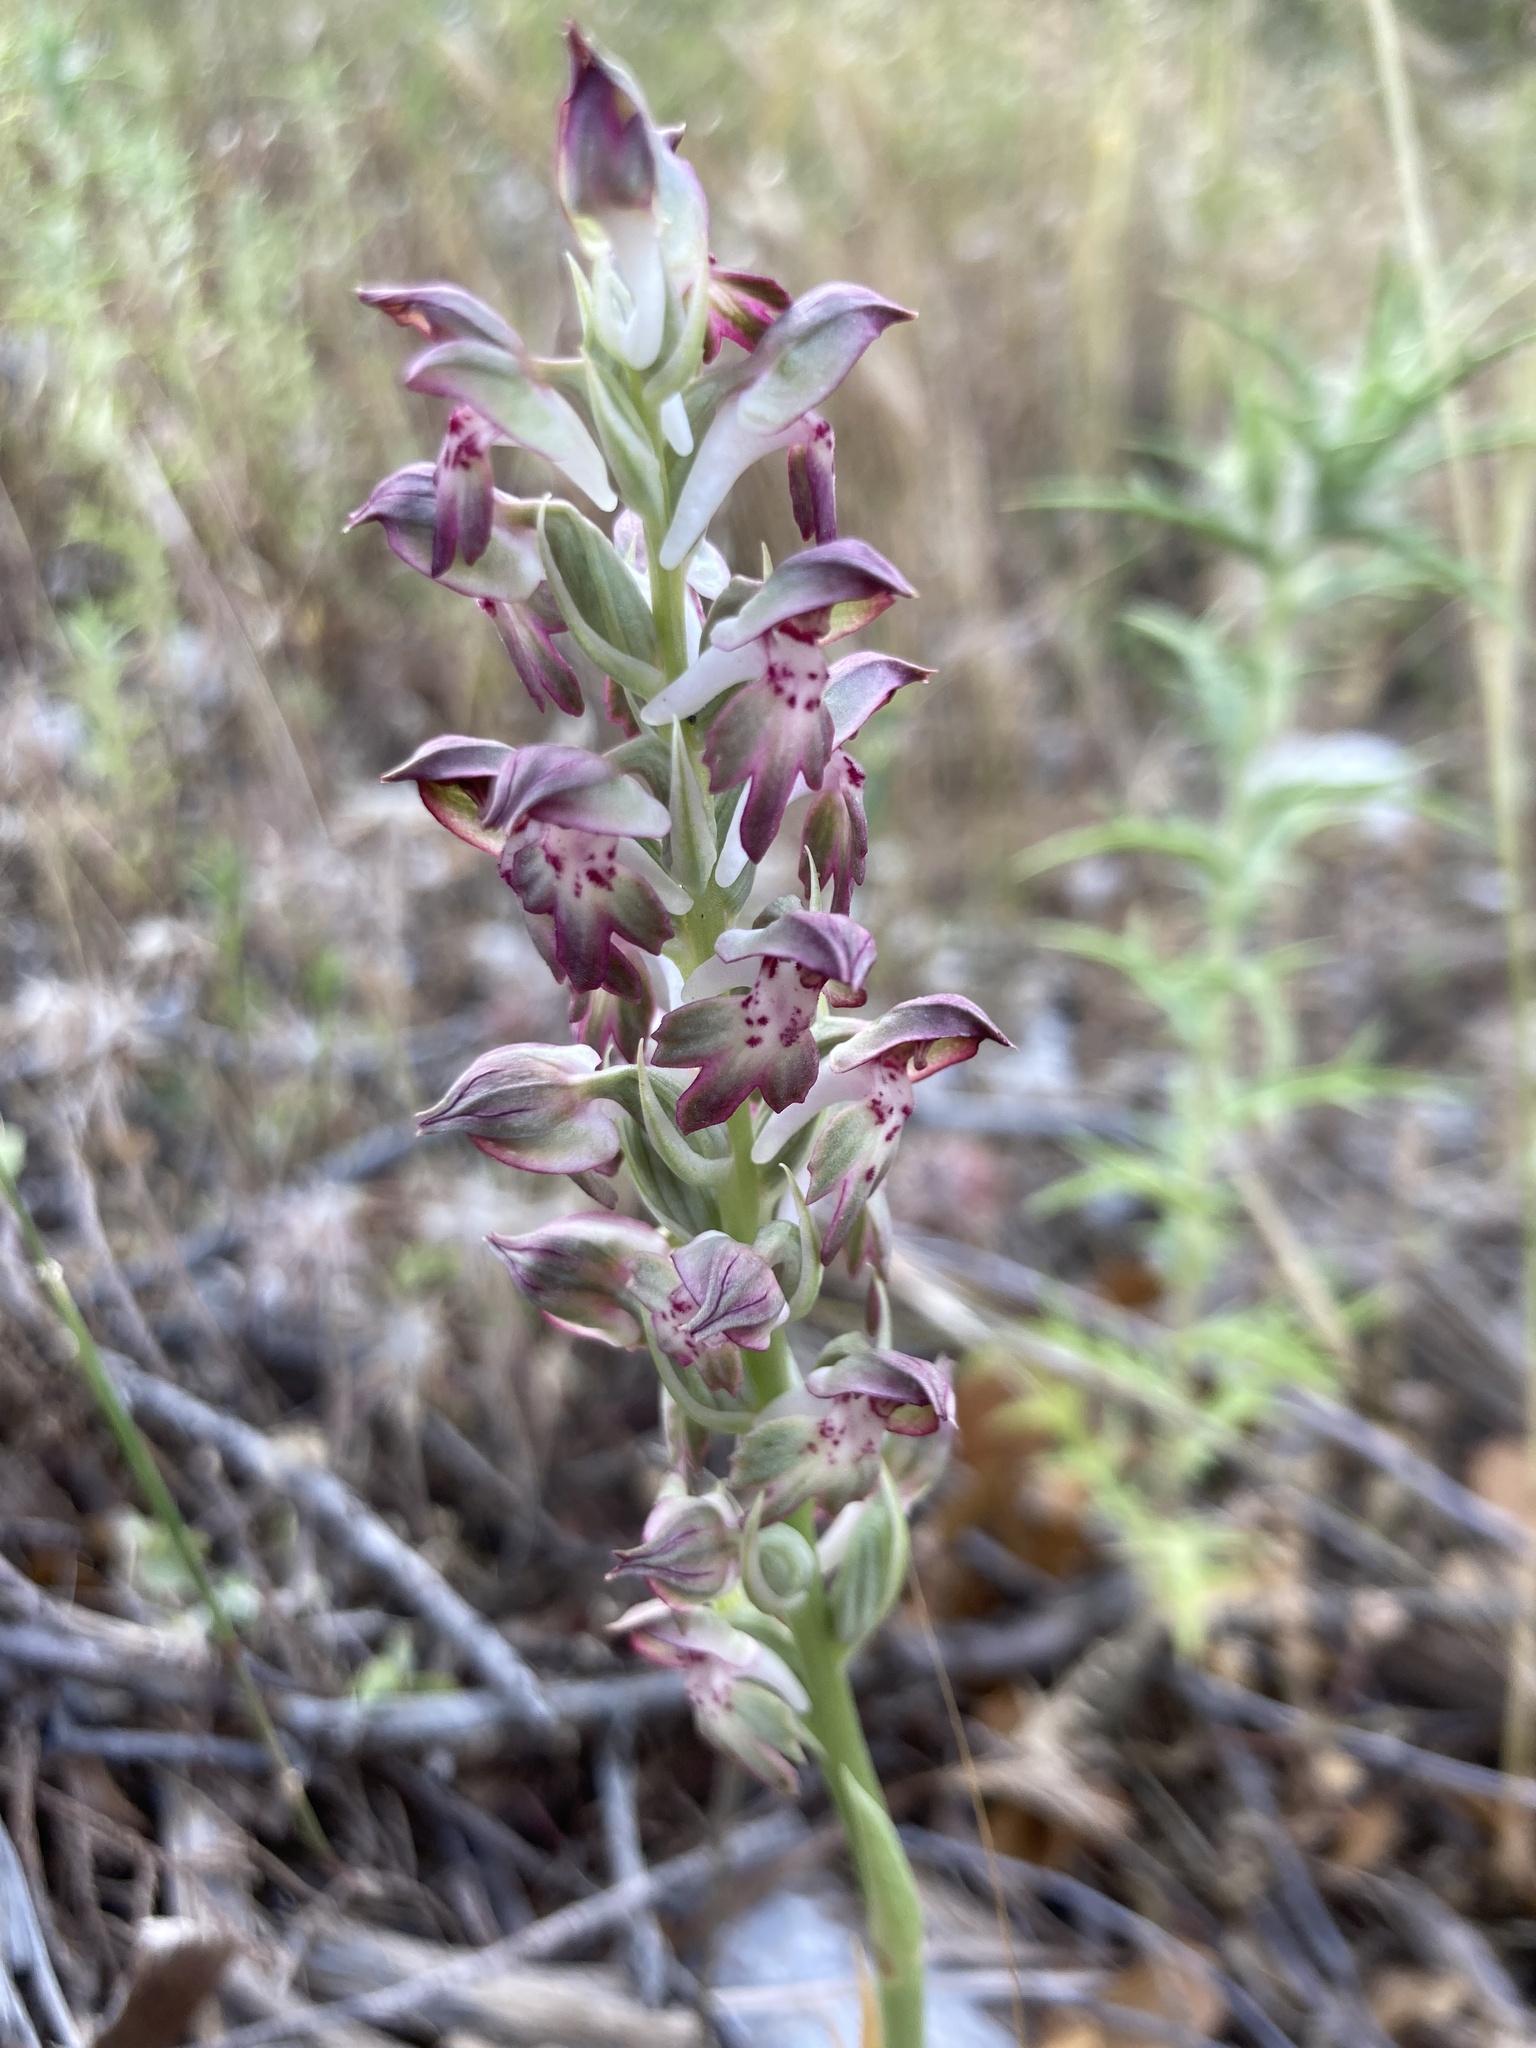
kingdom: Plantae
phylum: Tracheophyta
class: Liliopsida
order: Asparagales
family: Orchidaceae
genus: Anacamptis
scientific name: Anacamptis coriophora
